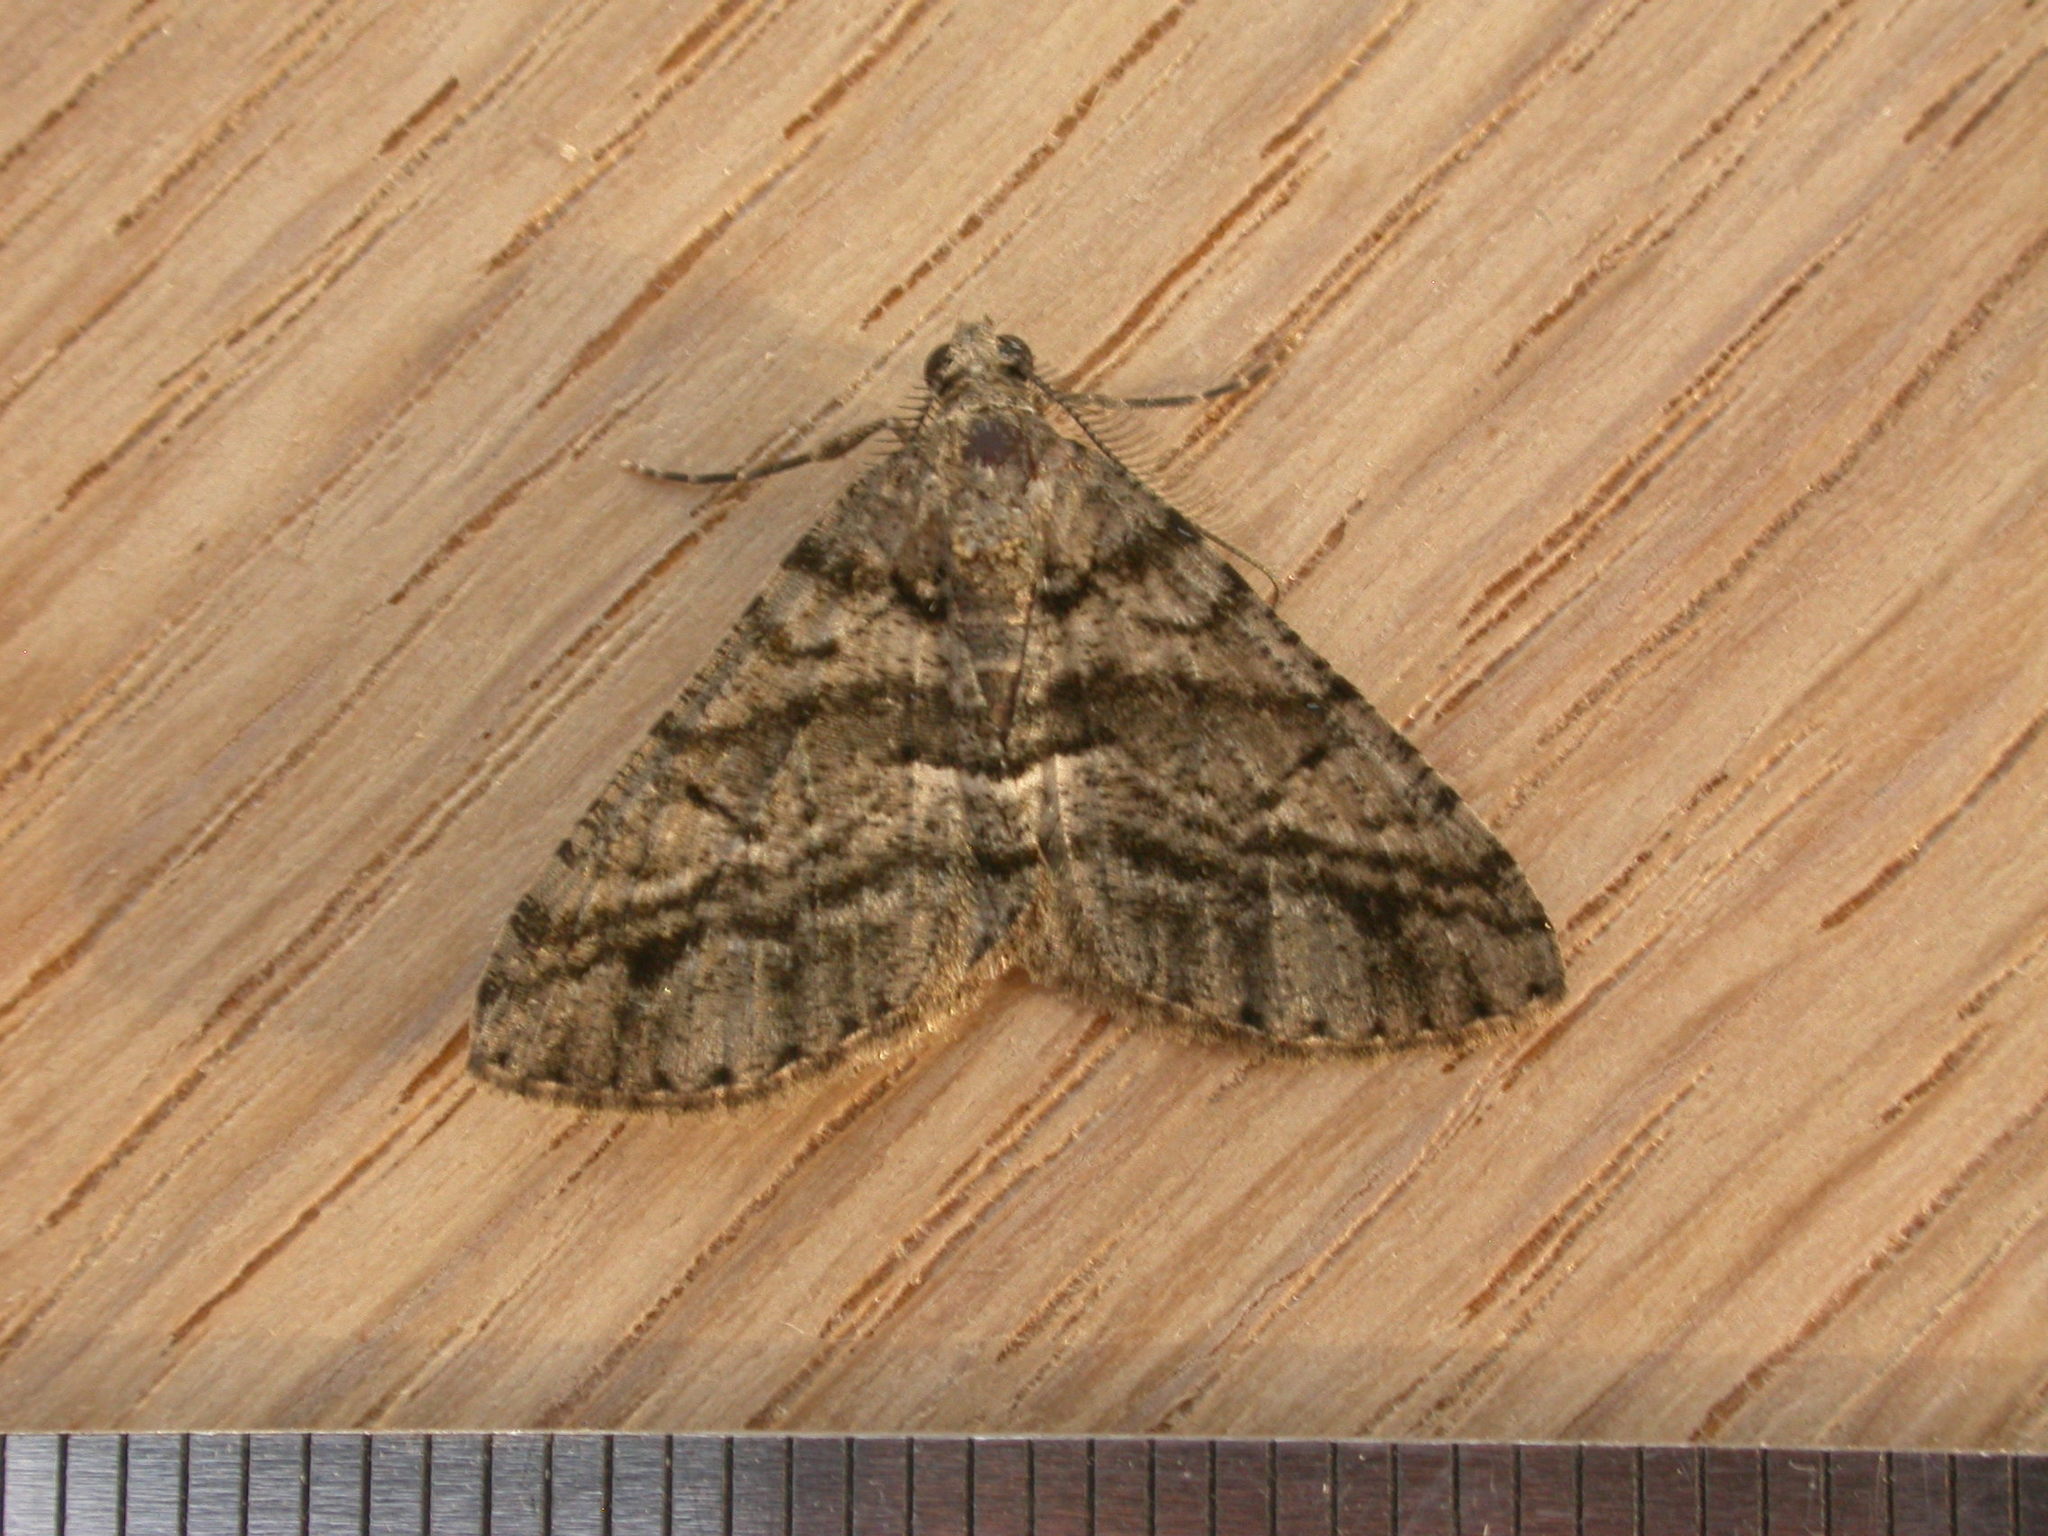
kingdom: Animalia
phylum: Arthropoda
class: Insecta
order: Lepidoptera
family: Geometridae
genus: Lipogya
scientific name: Lipogya eutheta
